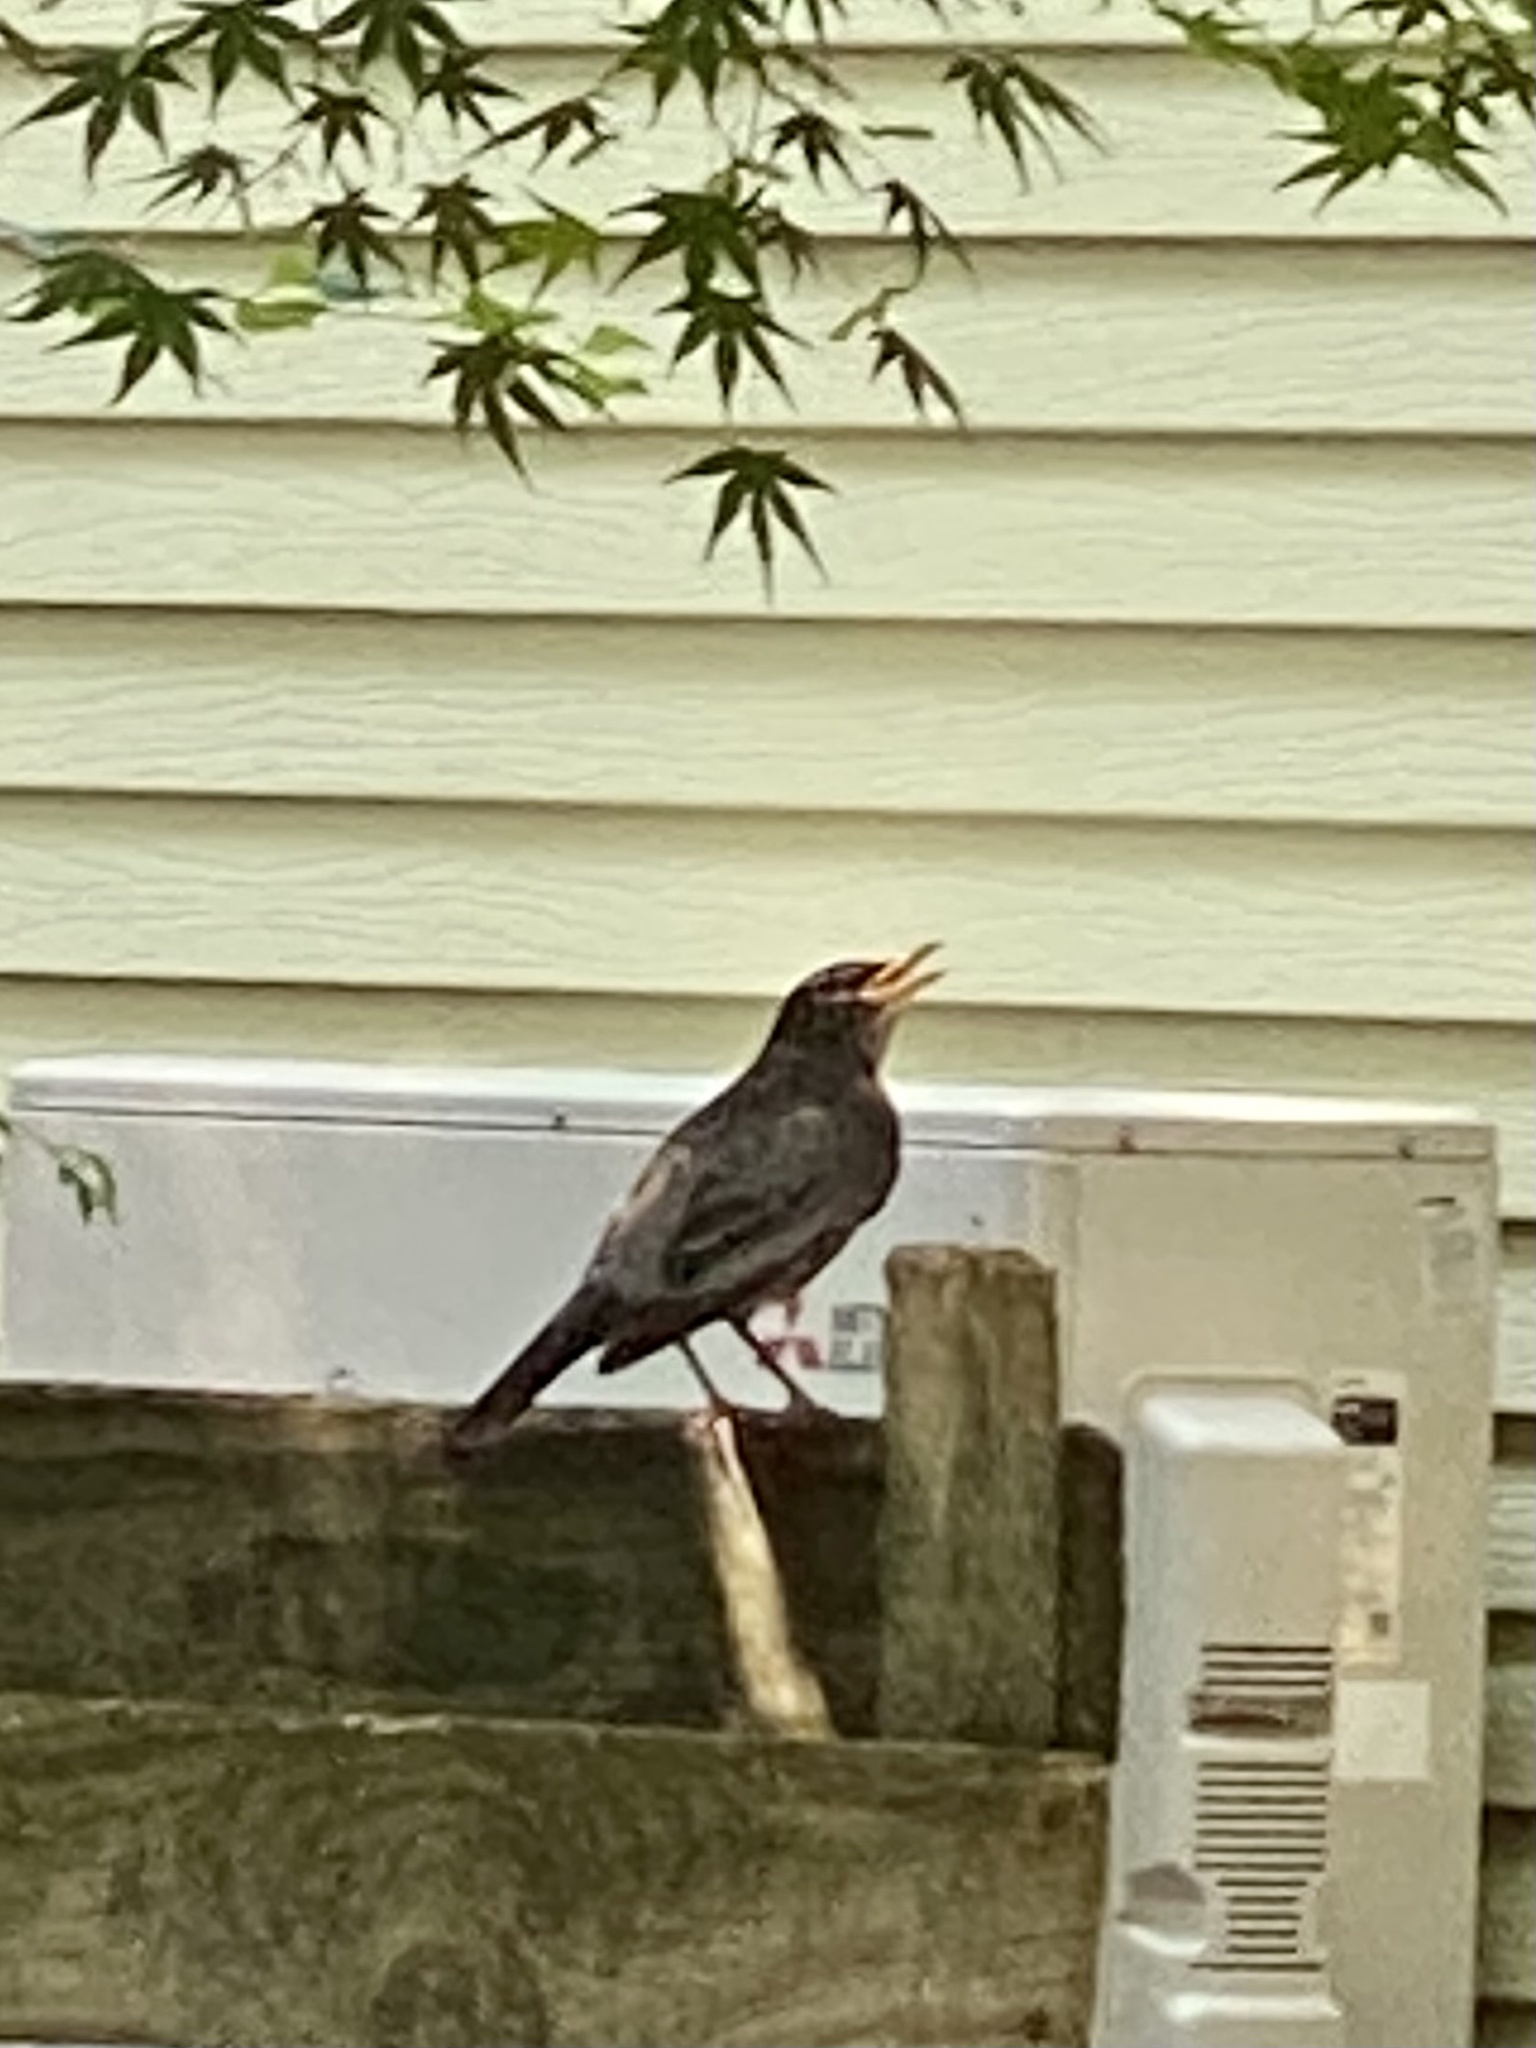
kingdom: Animalia
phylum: Chordata
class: Aves
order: Passeriformes
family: Turdidae
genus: Turdus
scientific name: Turdus migratorius
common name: American robin
